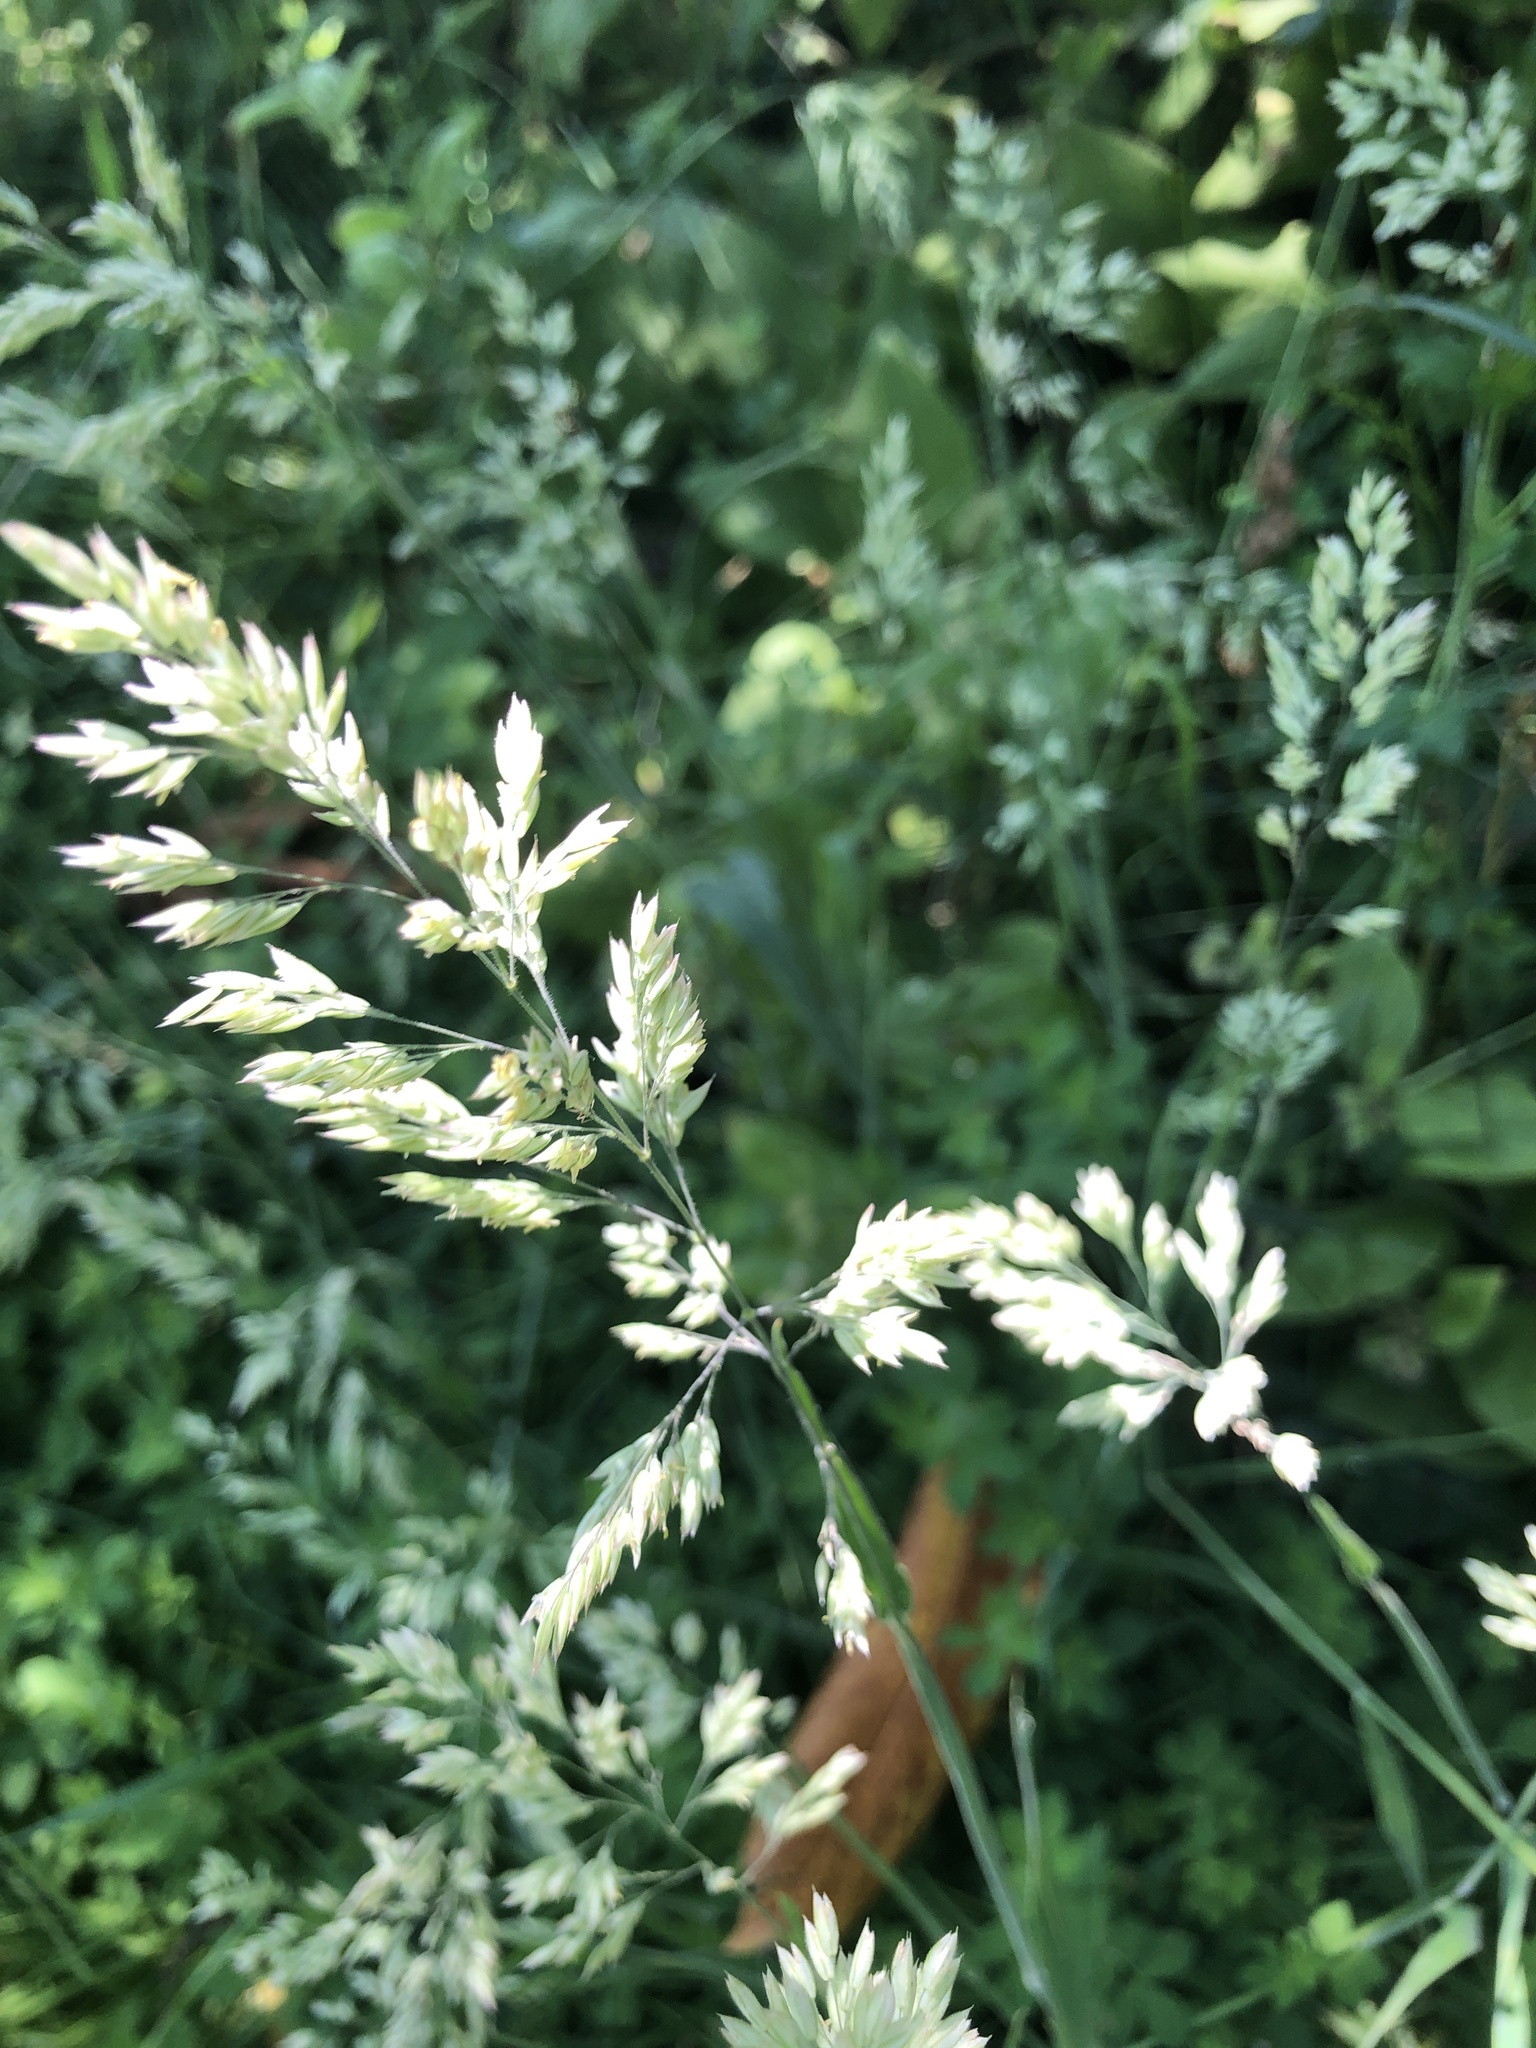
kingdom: Plantae
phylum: Tracheophyta
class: Liliopsida
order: Poales
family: Poaceae
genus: Holcus
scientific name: Holcus lanatus
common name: Yorkshire-fog
